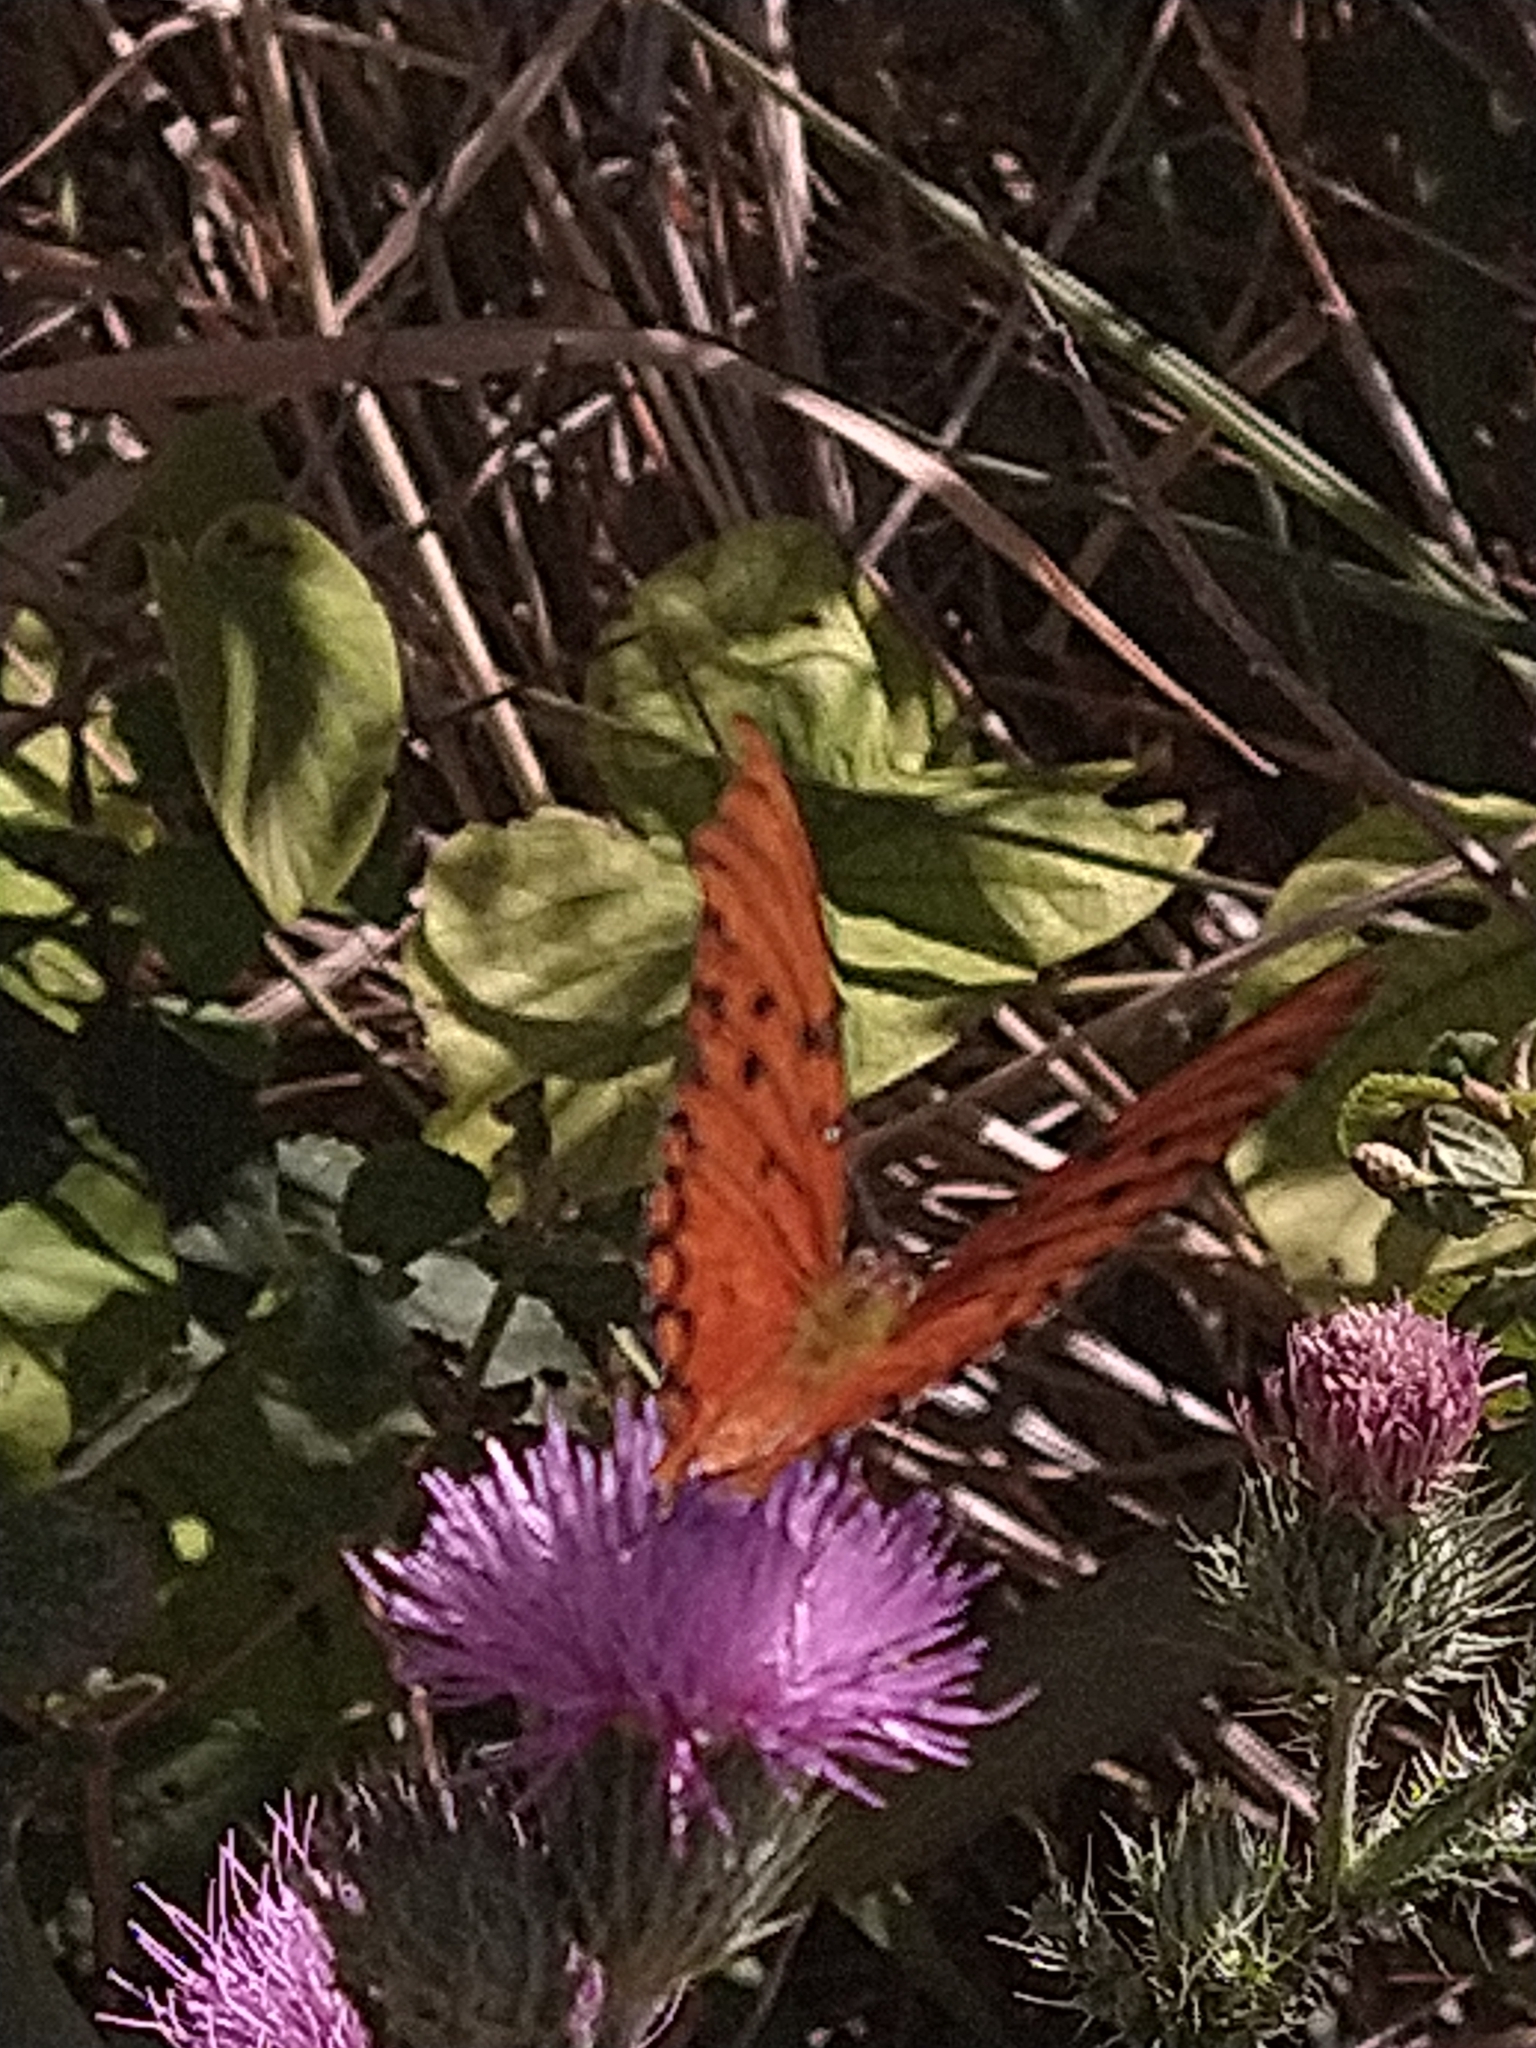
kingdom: Animalia
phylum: Arthropoda
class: Insecta
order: Lepidoptera
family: Nymphalidae
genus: Dione
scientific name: Dione vanillae
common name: Gulf fritillary
